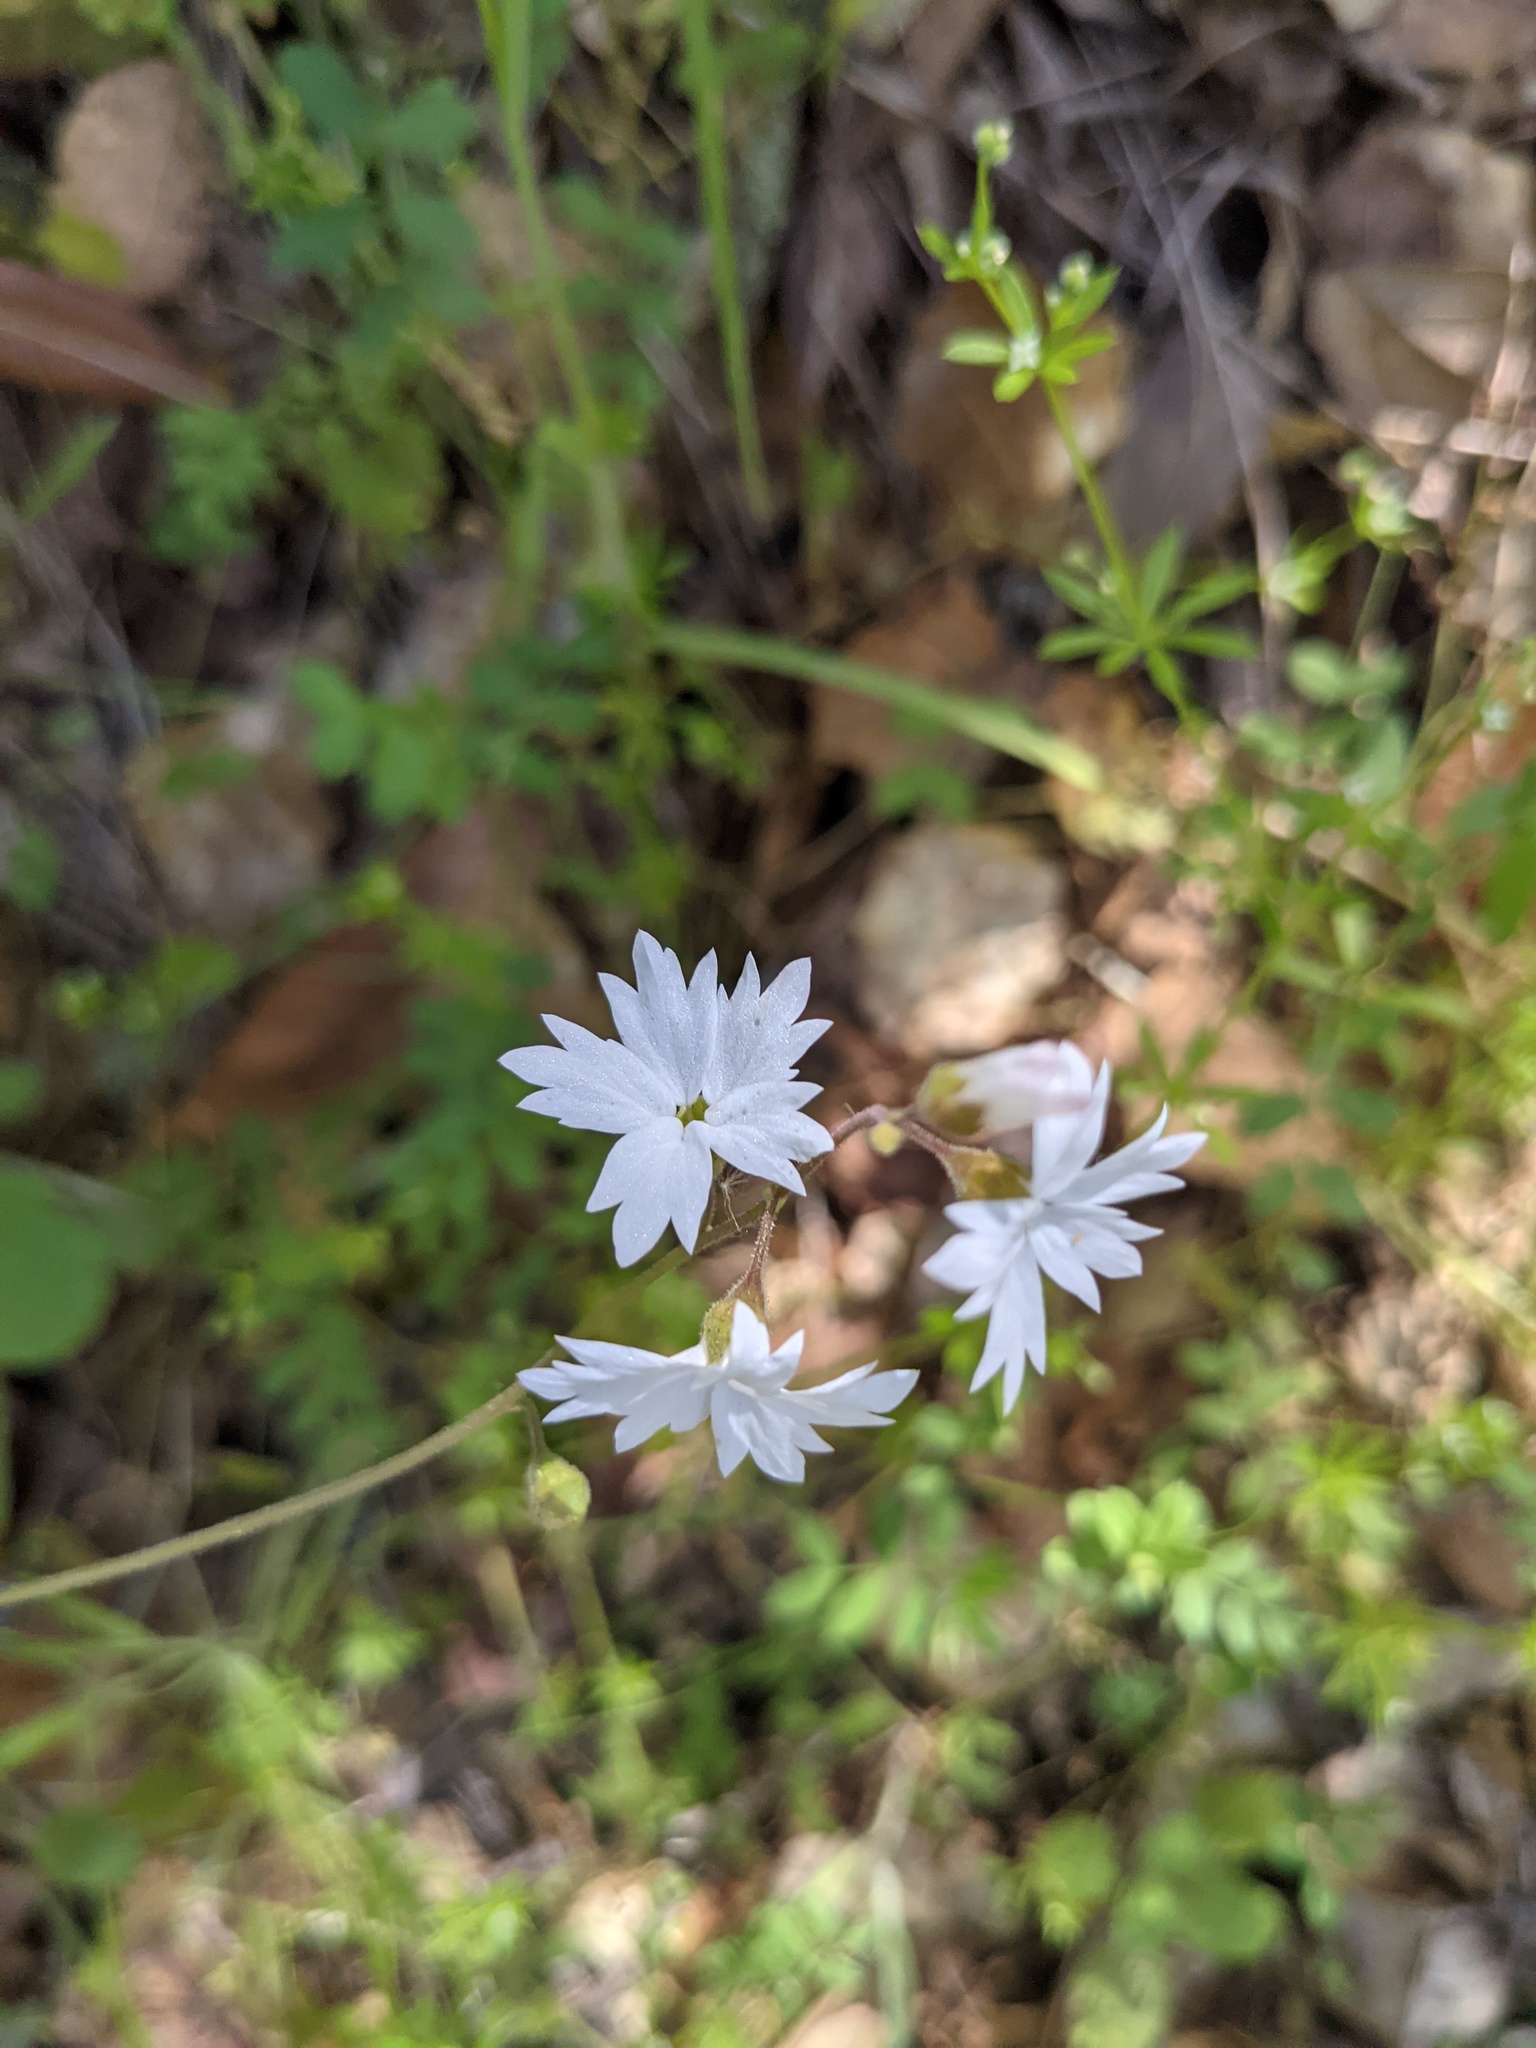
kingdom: Plantae
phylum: Tracheophyta
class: Magnoliopsida
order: Saxifragales
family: Saxifragaceae
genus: Lithophragma
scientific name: Lithophragma affine
